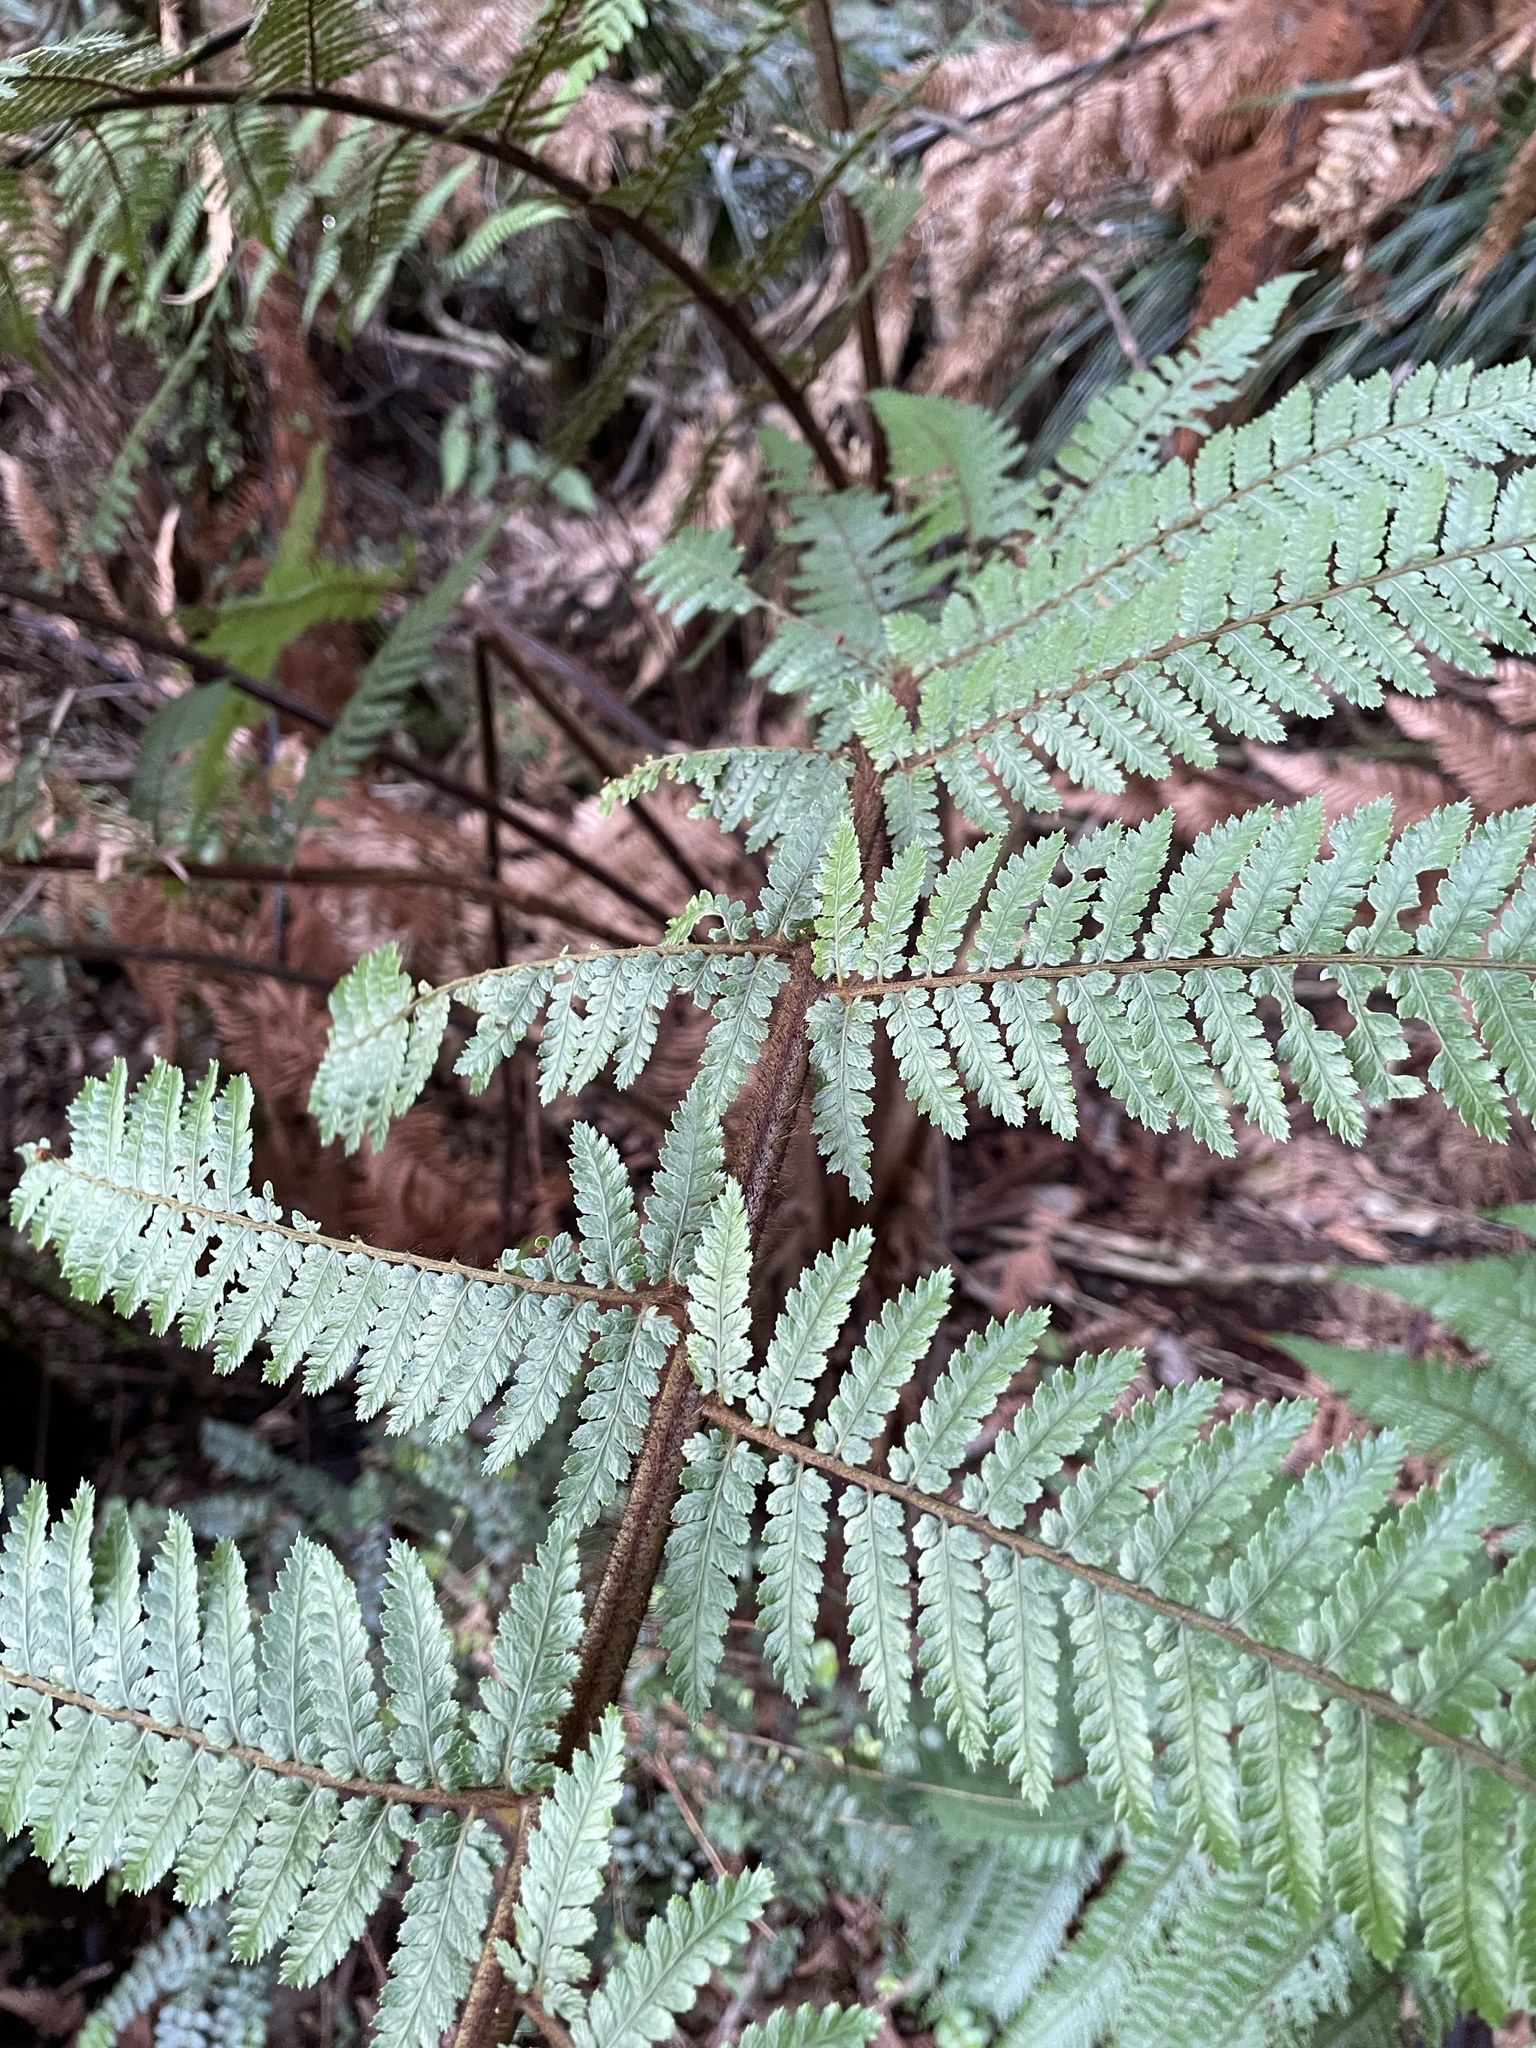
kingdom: Plantae
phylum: Tracheophyta
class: Polypodiopsida
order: Cyatheales
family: Dicksoniaceae
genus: Dicksonia
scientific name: Dicksonia squarrosa
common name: Hard treefern
